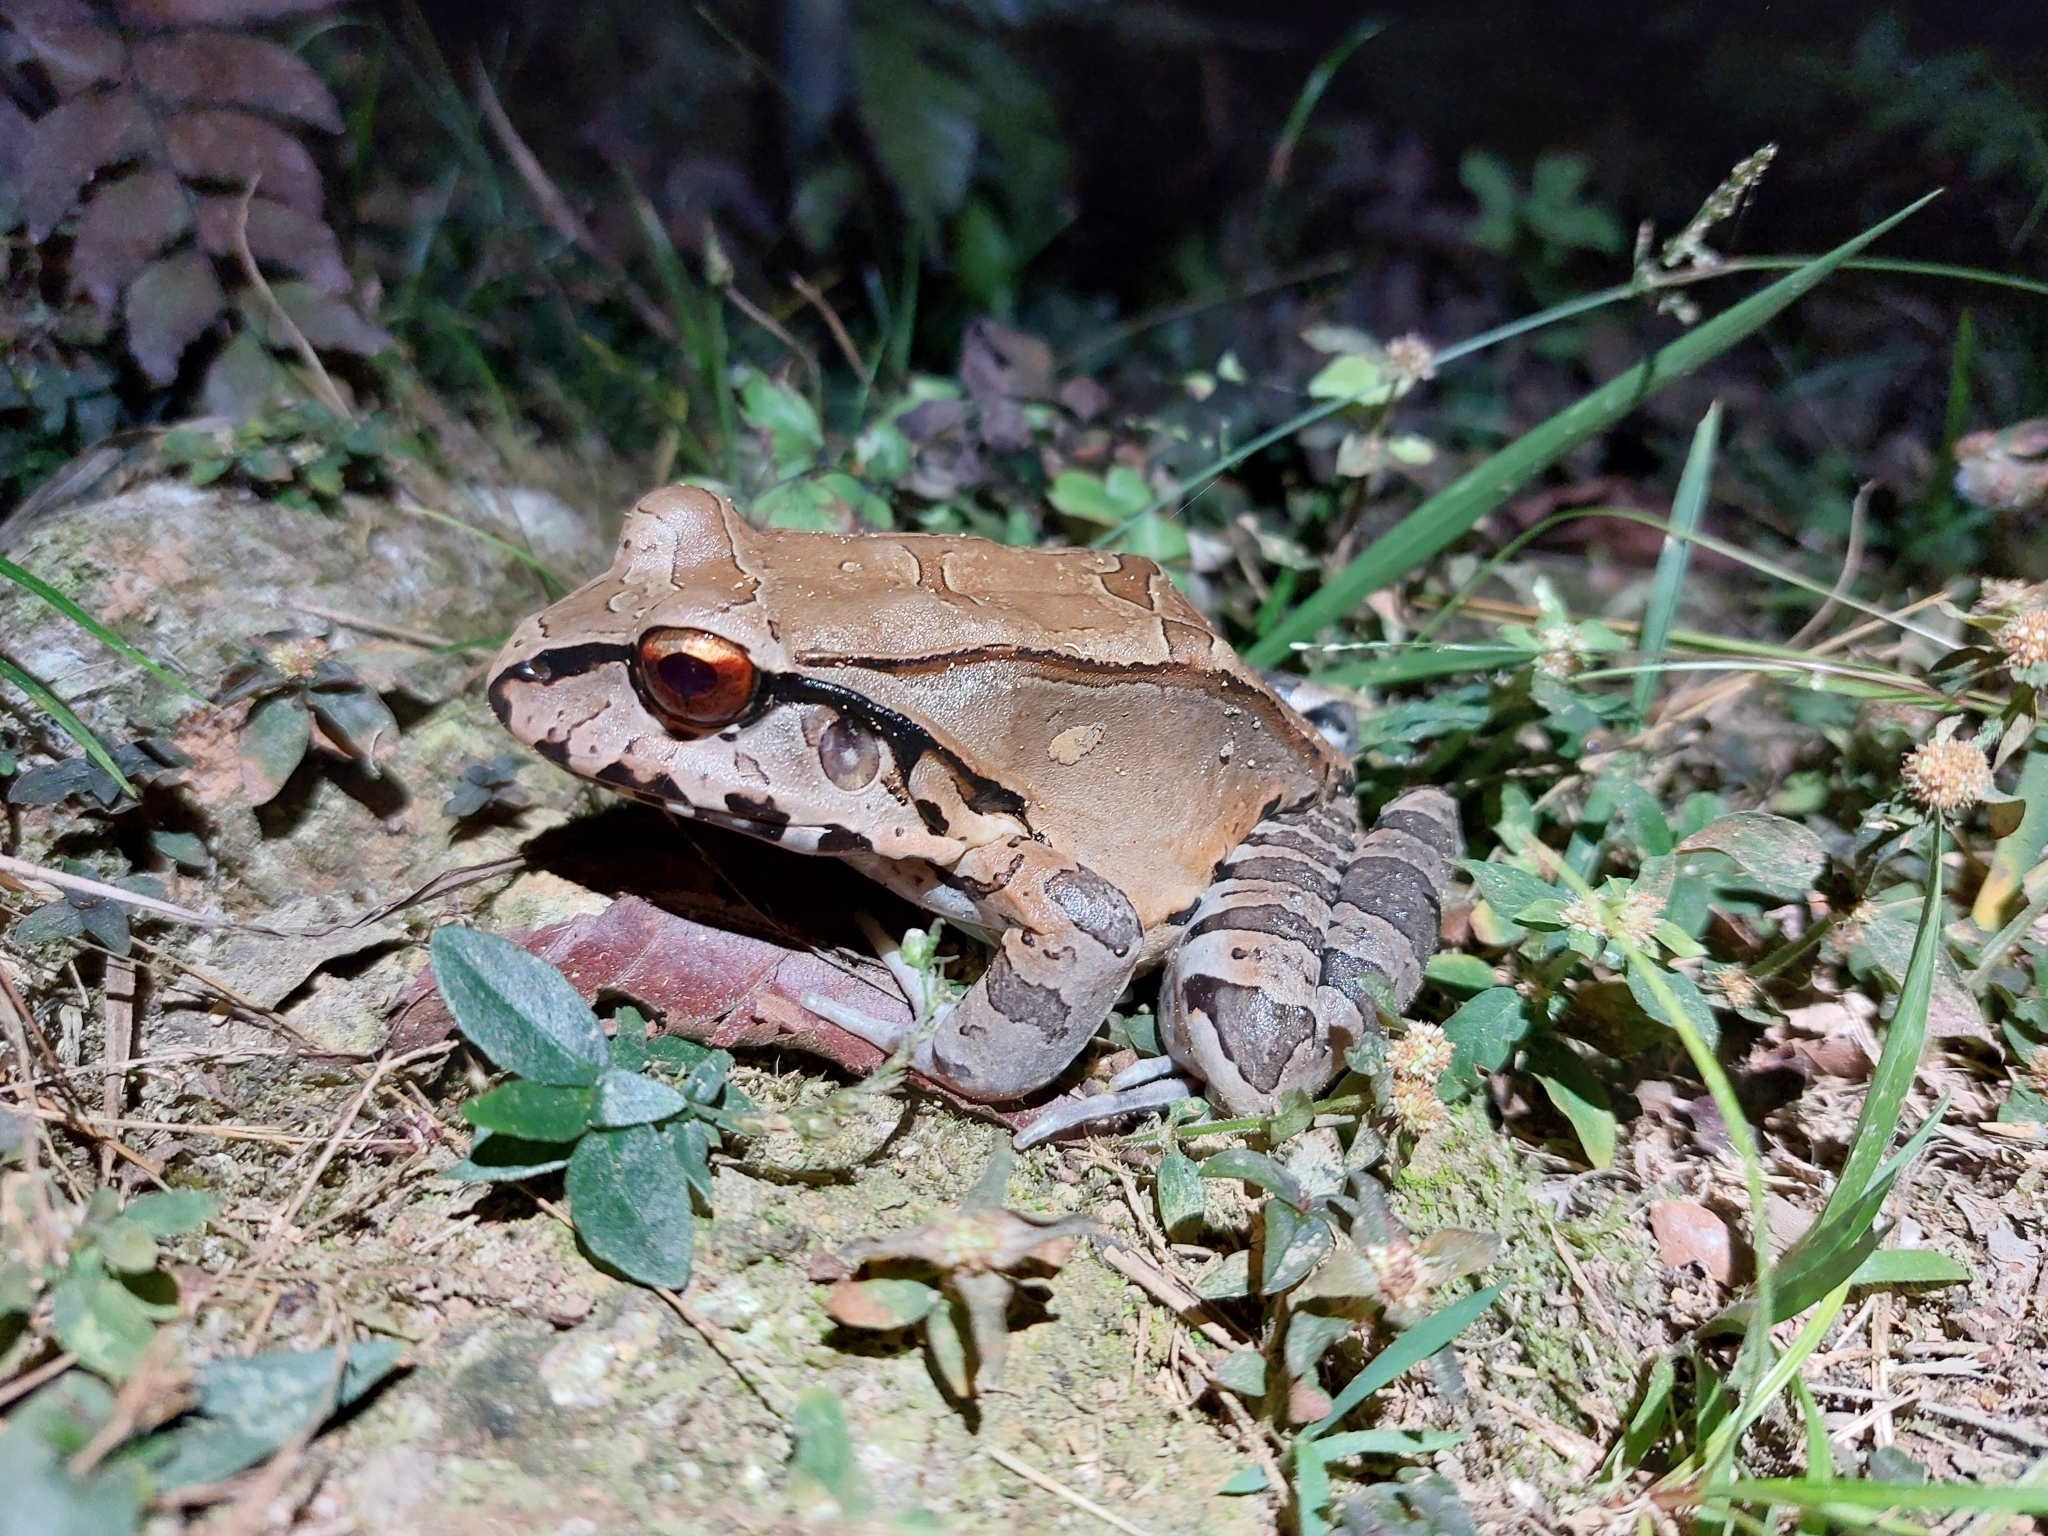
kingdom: Animalia
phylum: Chordata
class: Amphibia
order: Anura
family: Leptodactylidae
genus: Leptodactylus
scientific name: Leptodactylus pentadactylus
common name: Smoky jungle frog
